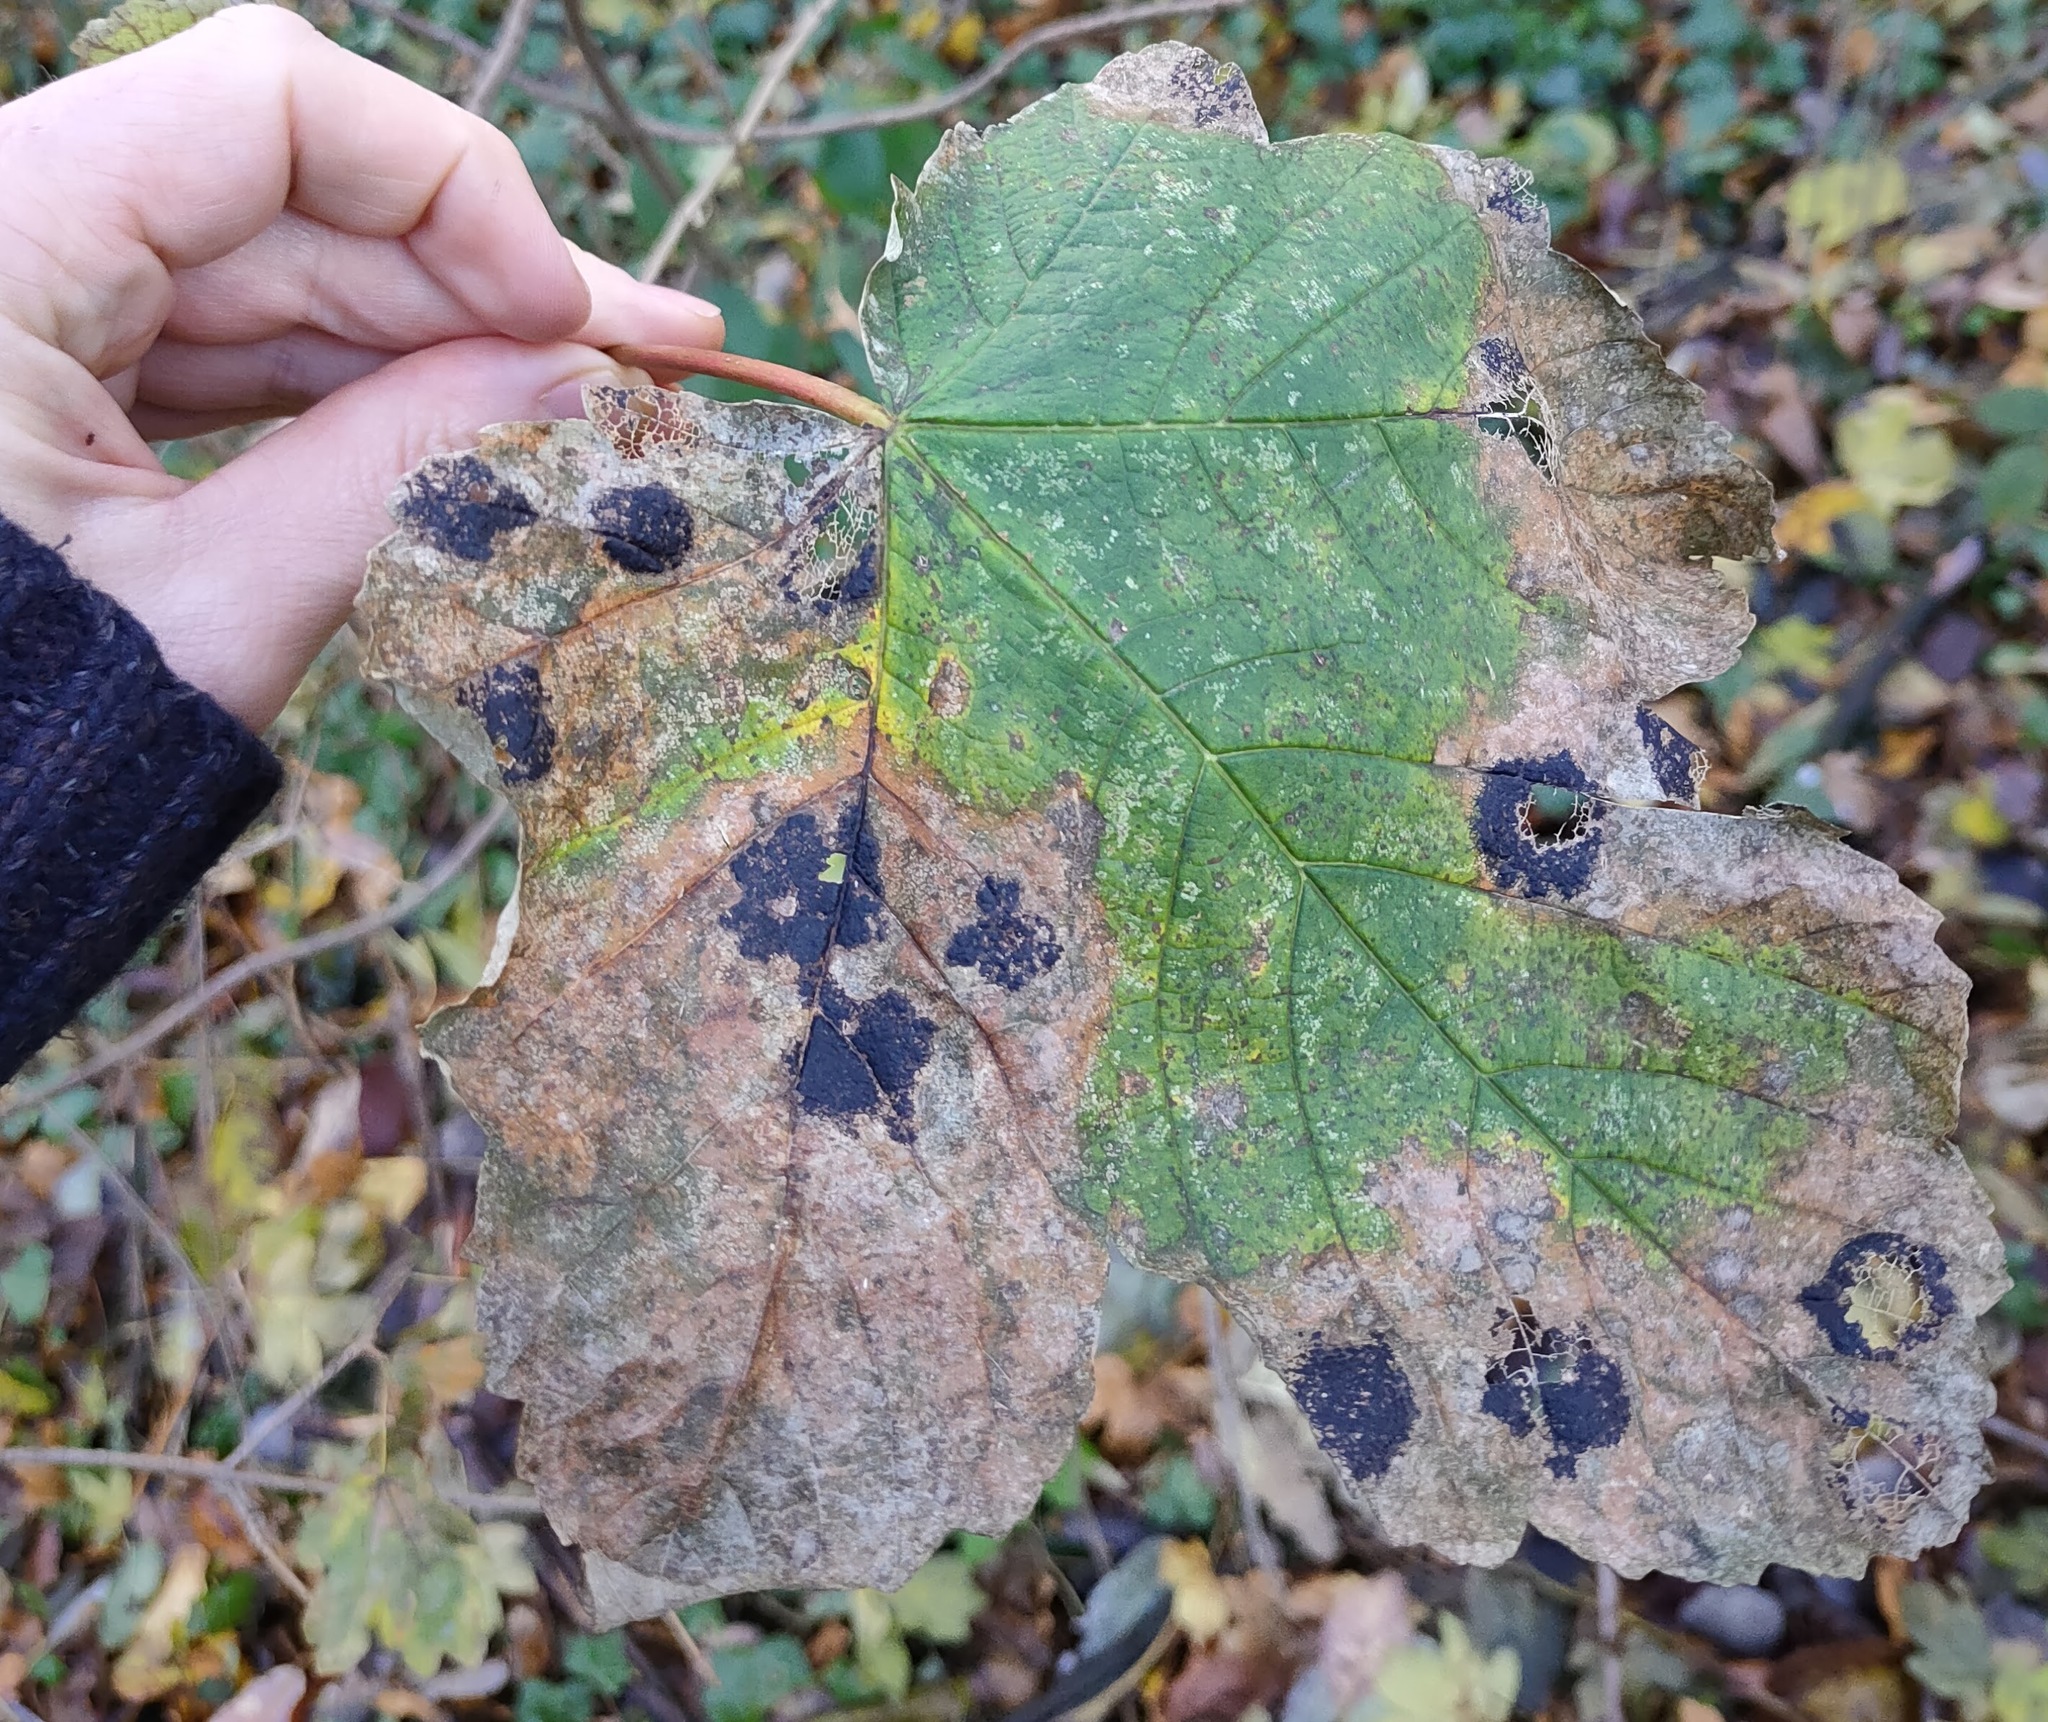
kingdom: Fungi
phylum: Ascomycota
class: Leotiomycetes
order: Rhytismatales
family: Rhytismataceae
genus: Rhytisma
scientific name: Rhytisma acerinum
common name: European tar spot
